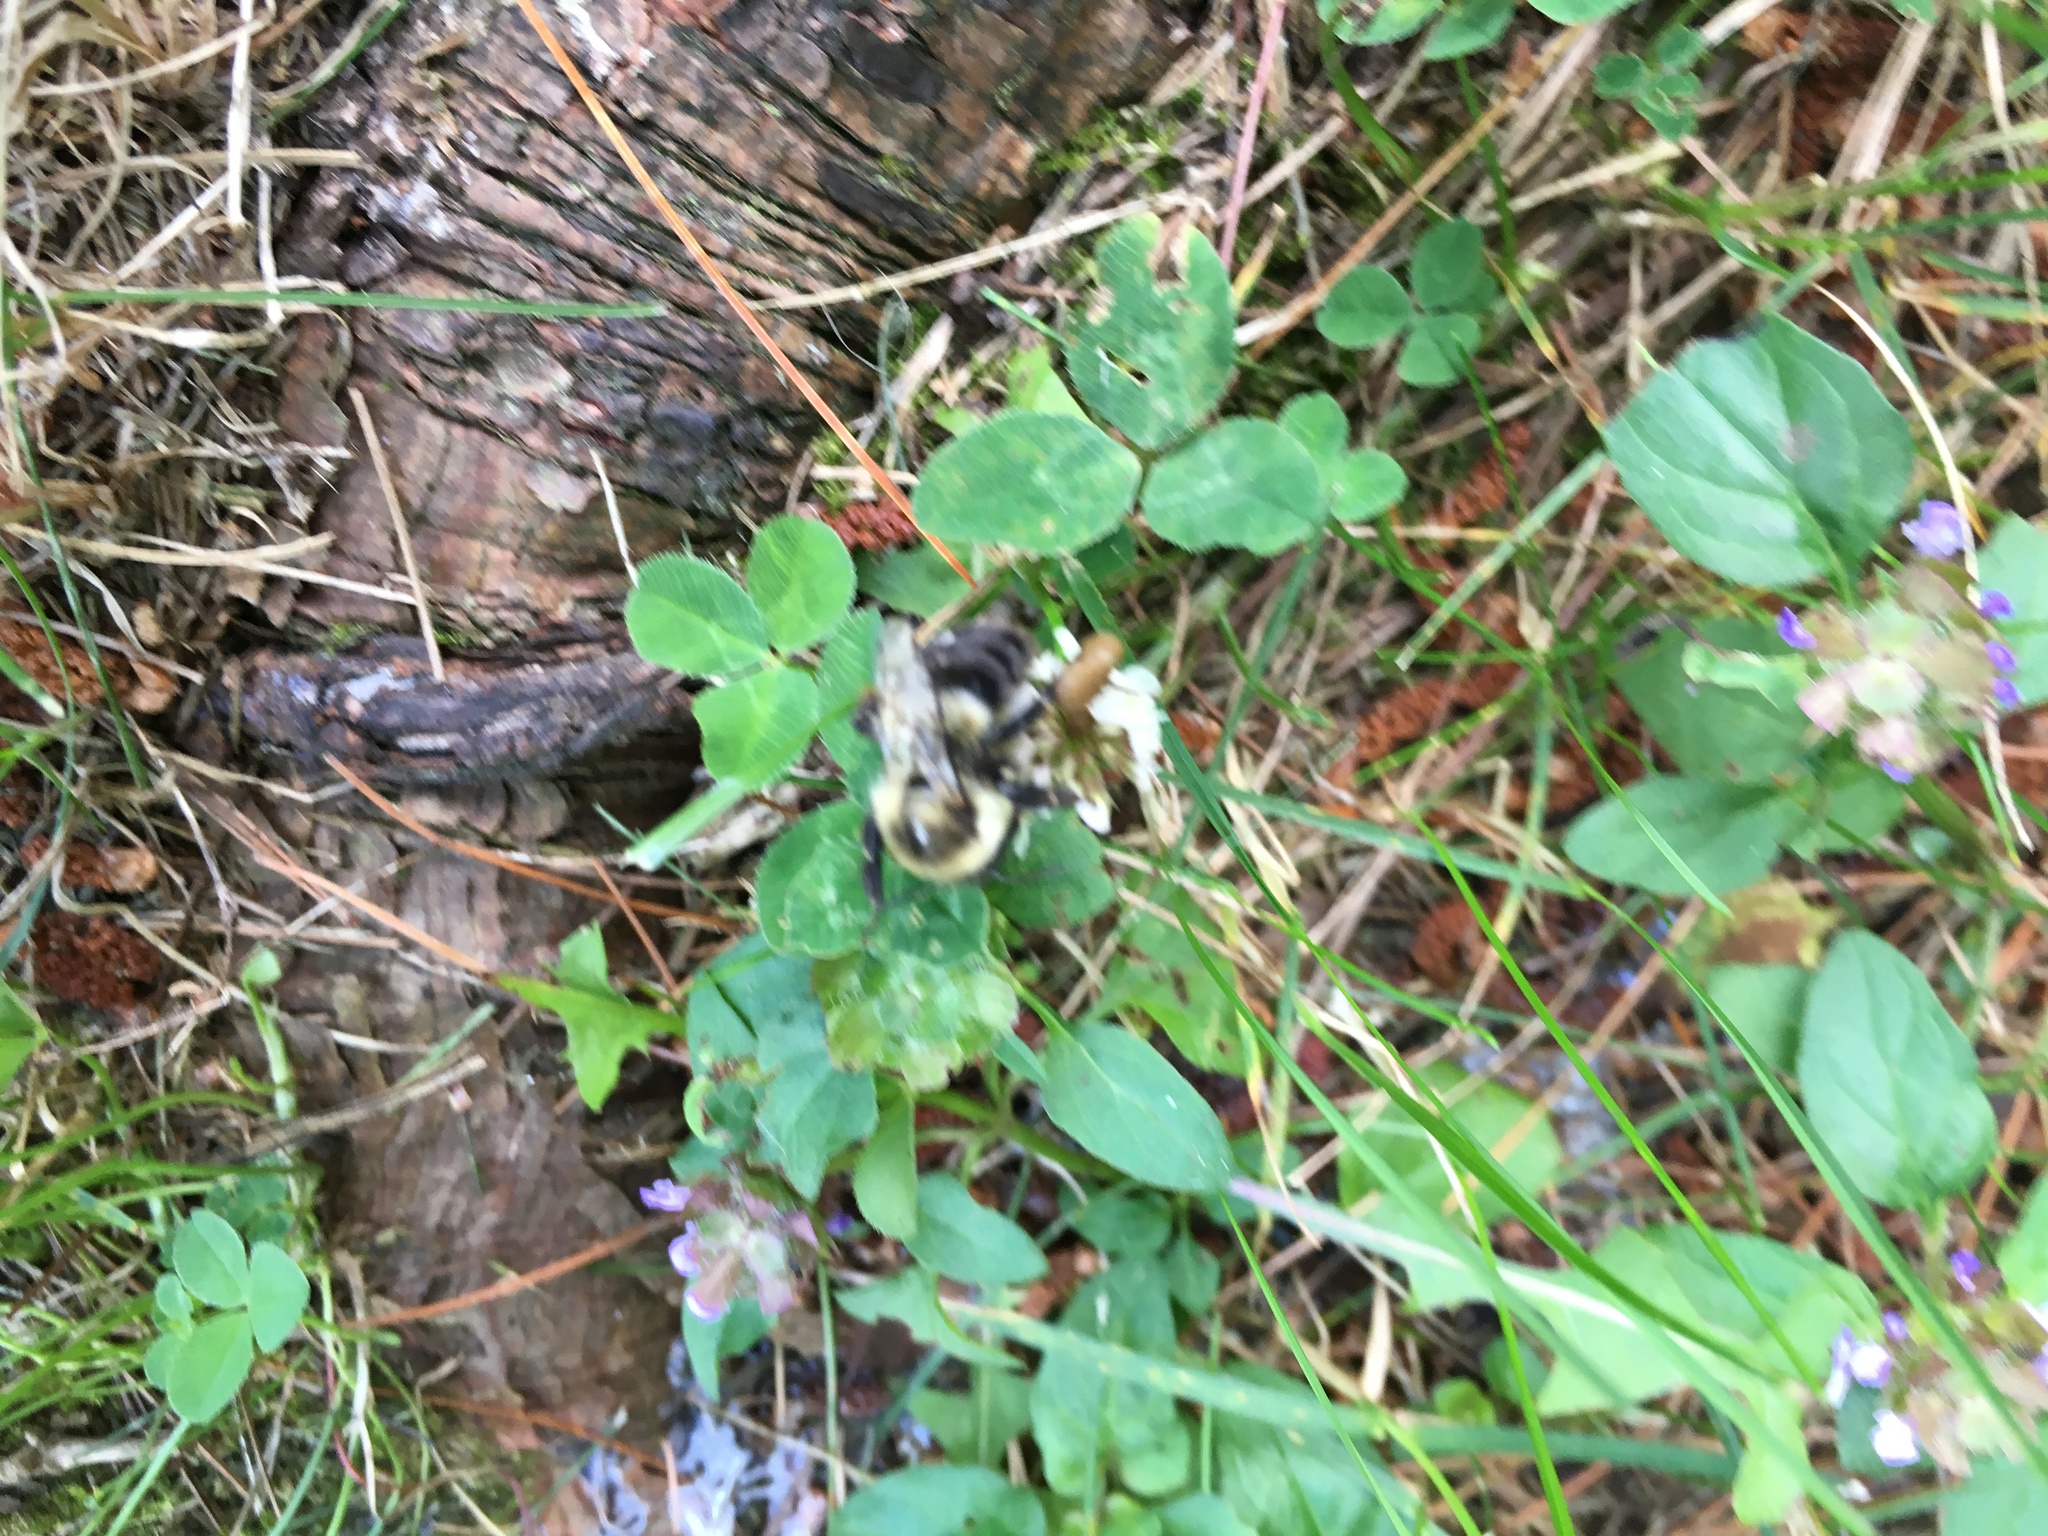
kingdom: Animalia
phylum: Arthropoda
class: Insecta
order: Hymenoptera
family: Apidae
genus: Bombus
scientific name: Bombus impatiens
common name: Common eastern bumble bee
